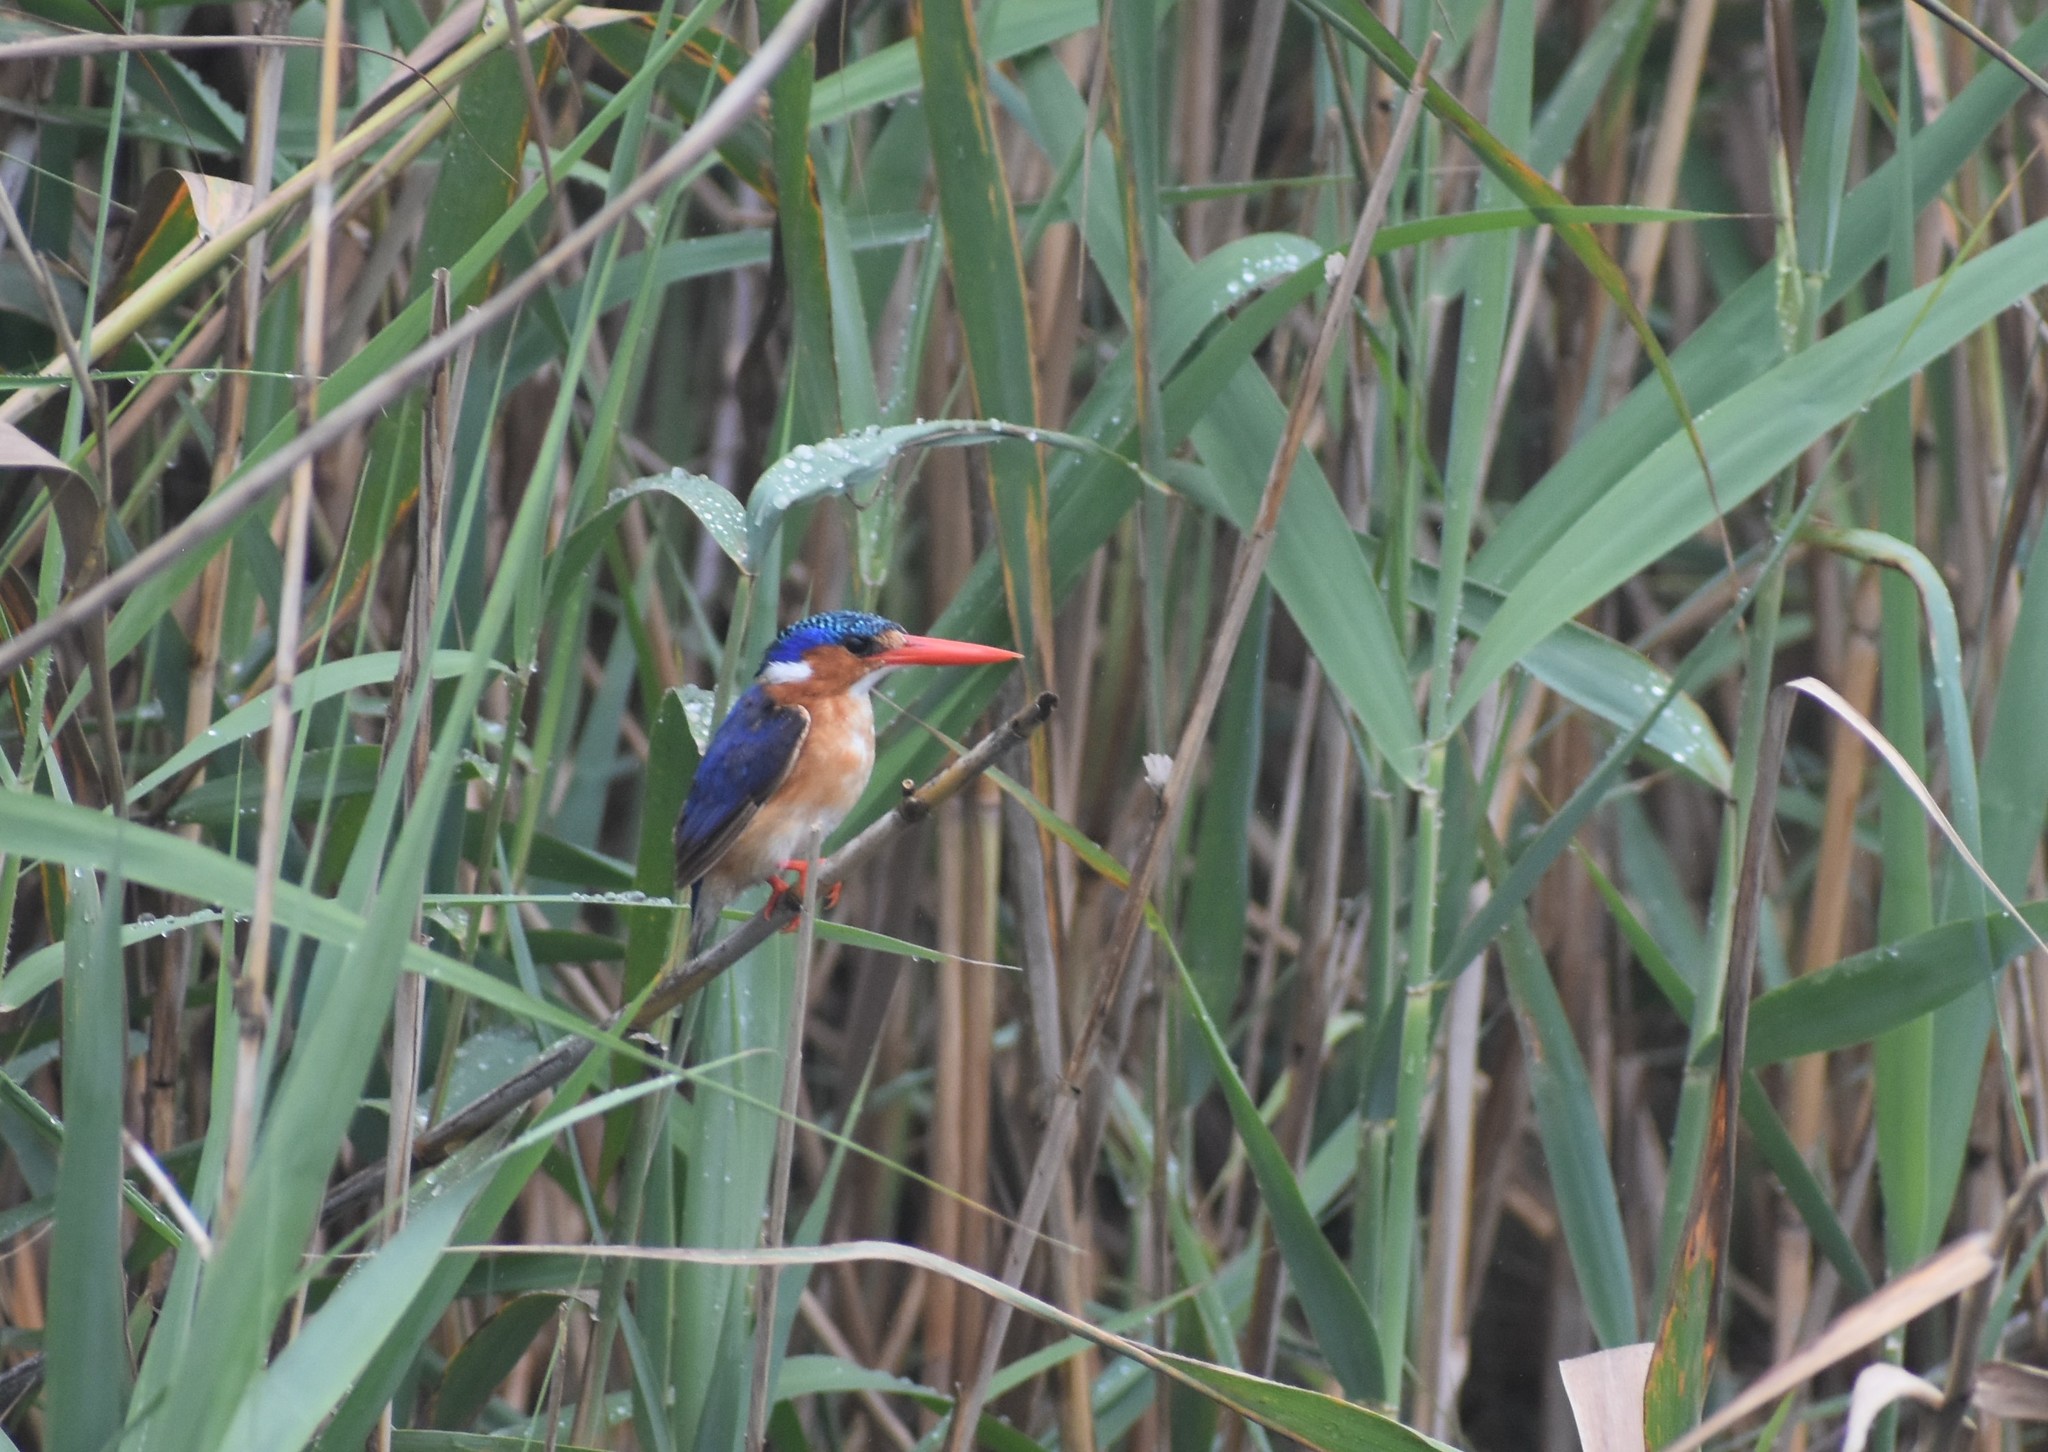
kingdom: Animalia
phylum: Chordata
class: Aves
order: Coraciiformes
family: Alcedinidae
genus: Corythornis
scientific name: Corythornis cristatus
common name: Malachite kingfisher
